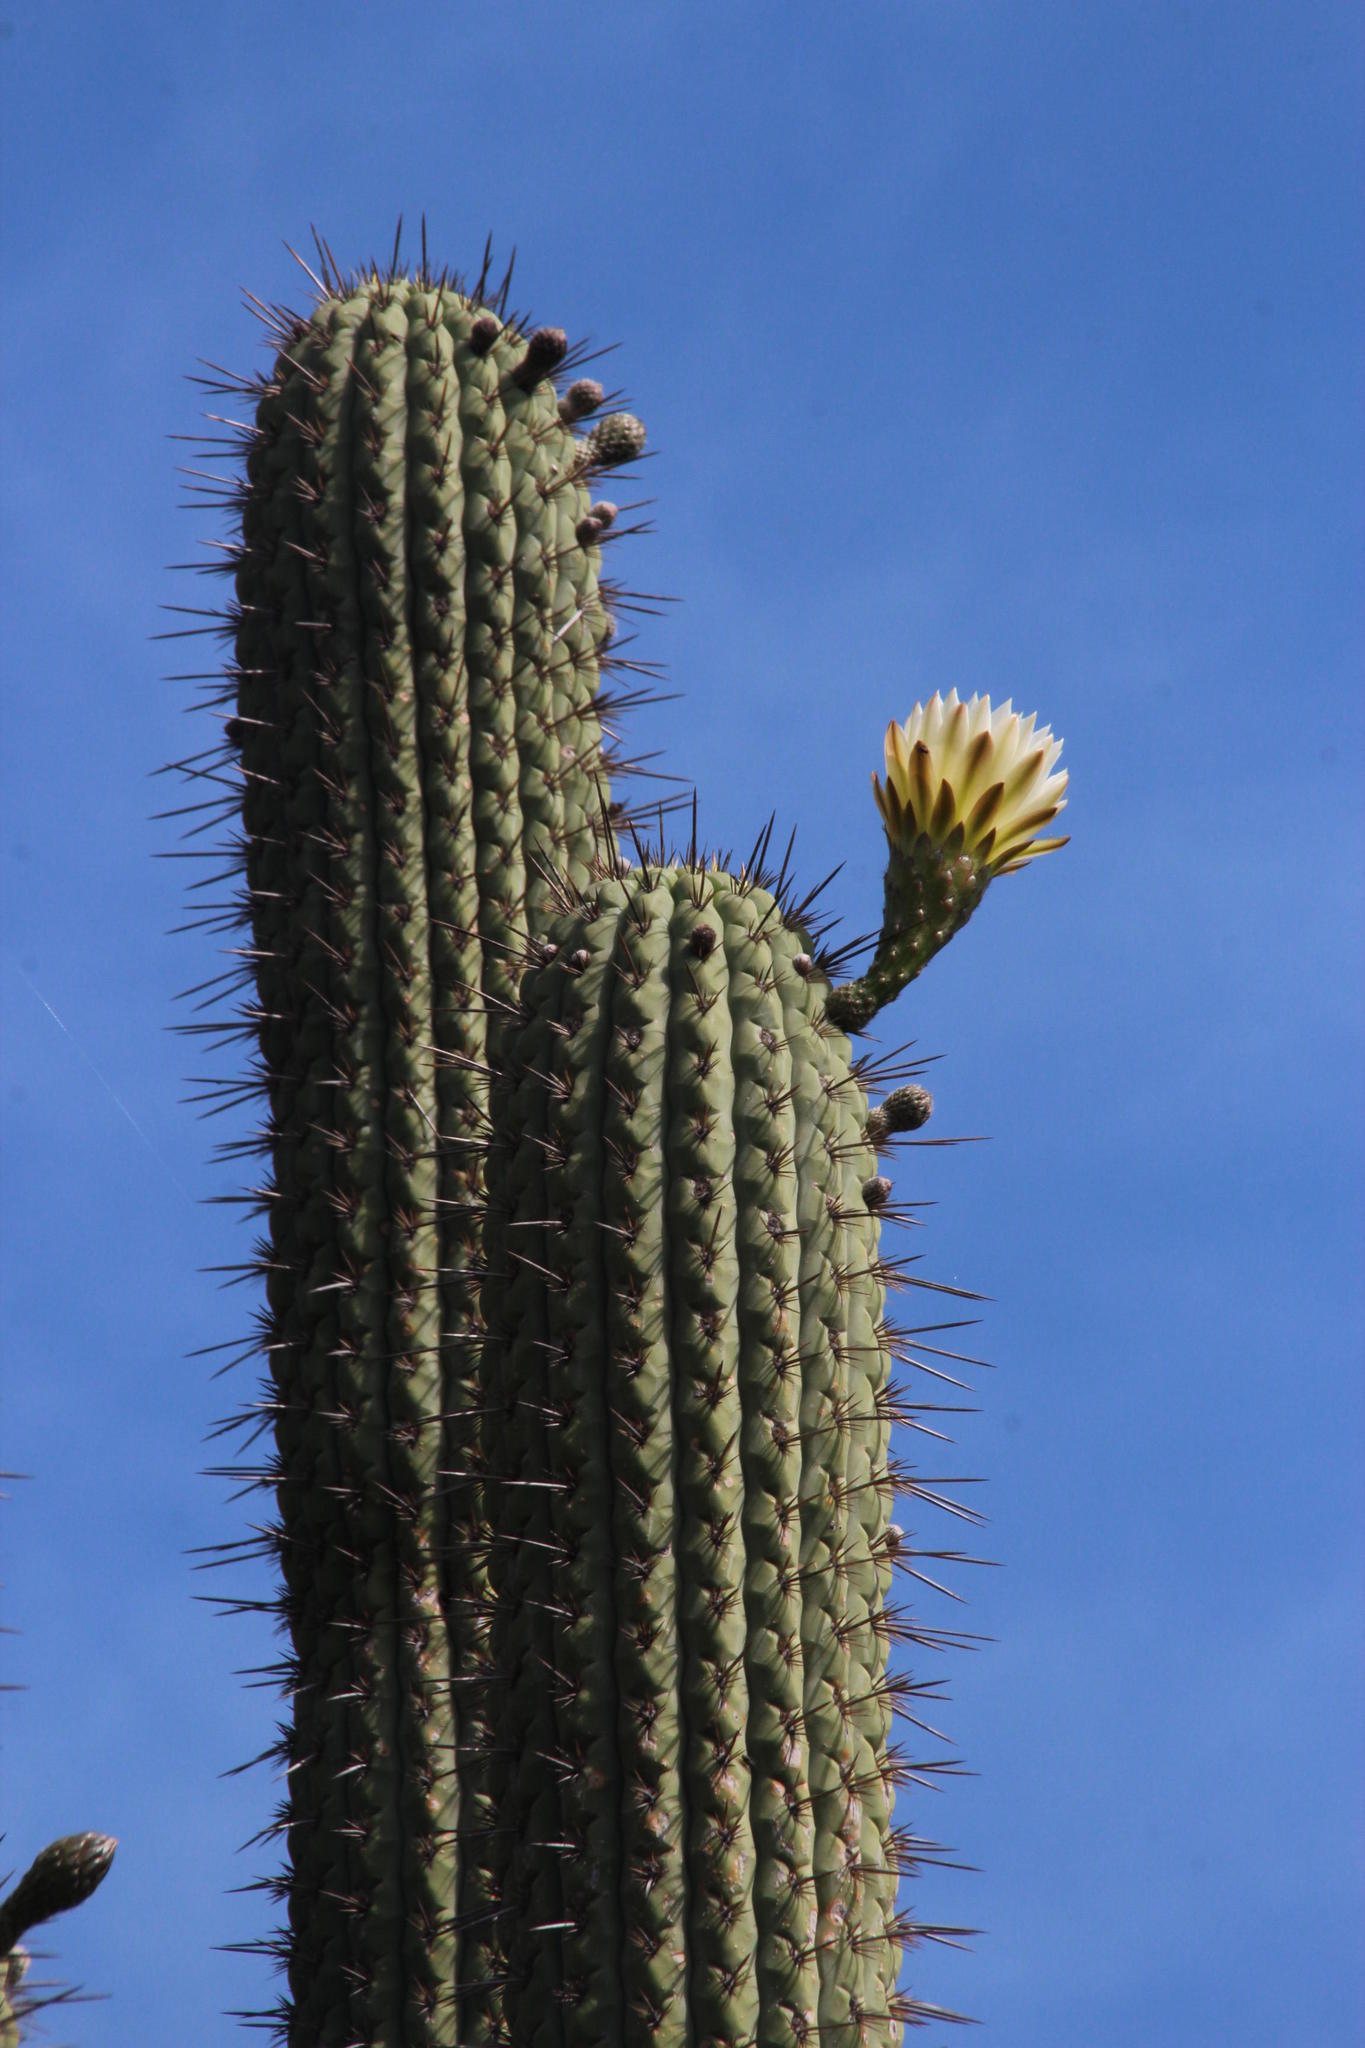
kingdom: Plantae
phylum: Tracheophyta
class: Magnoliopsida
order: Caryophyllales
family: Cactaceae
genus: Leucostele
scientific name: Leucostele chiloensis
